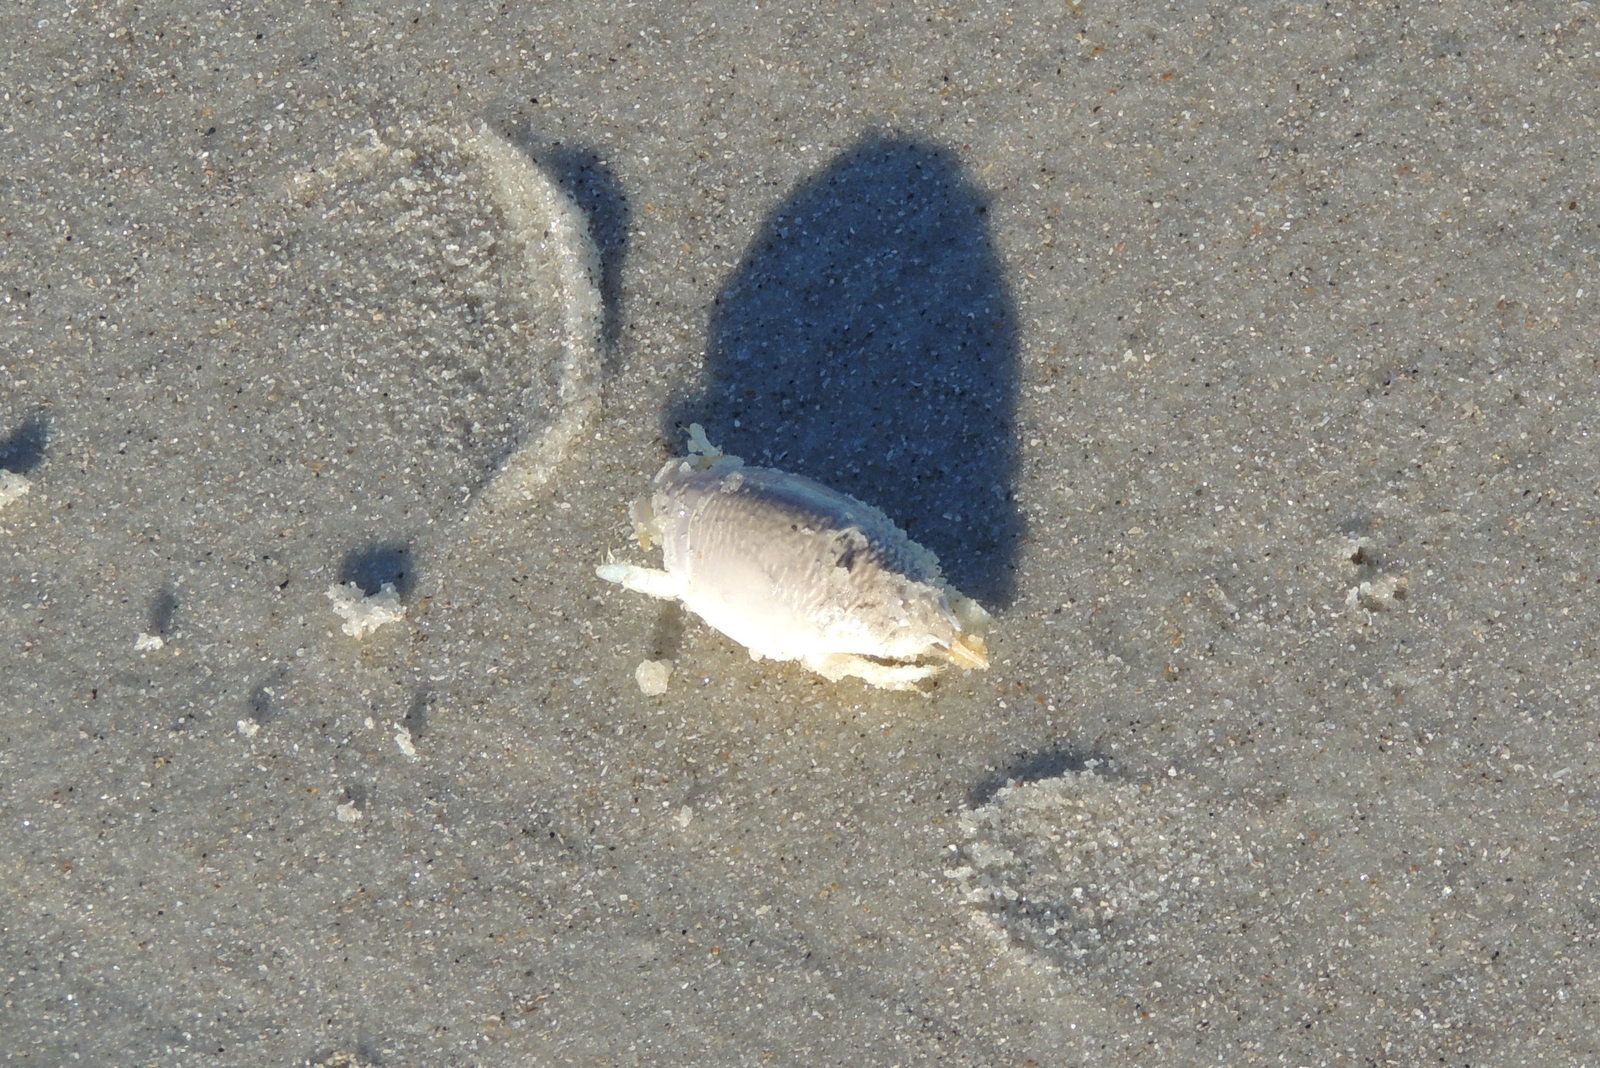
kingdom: Animalia
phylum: Arthropoda
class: Malacostraca
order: Decapoda
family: Hippidae
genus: Emerita
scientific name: Emerita talpoida
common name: Atlantic sand crab
